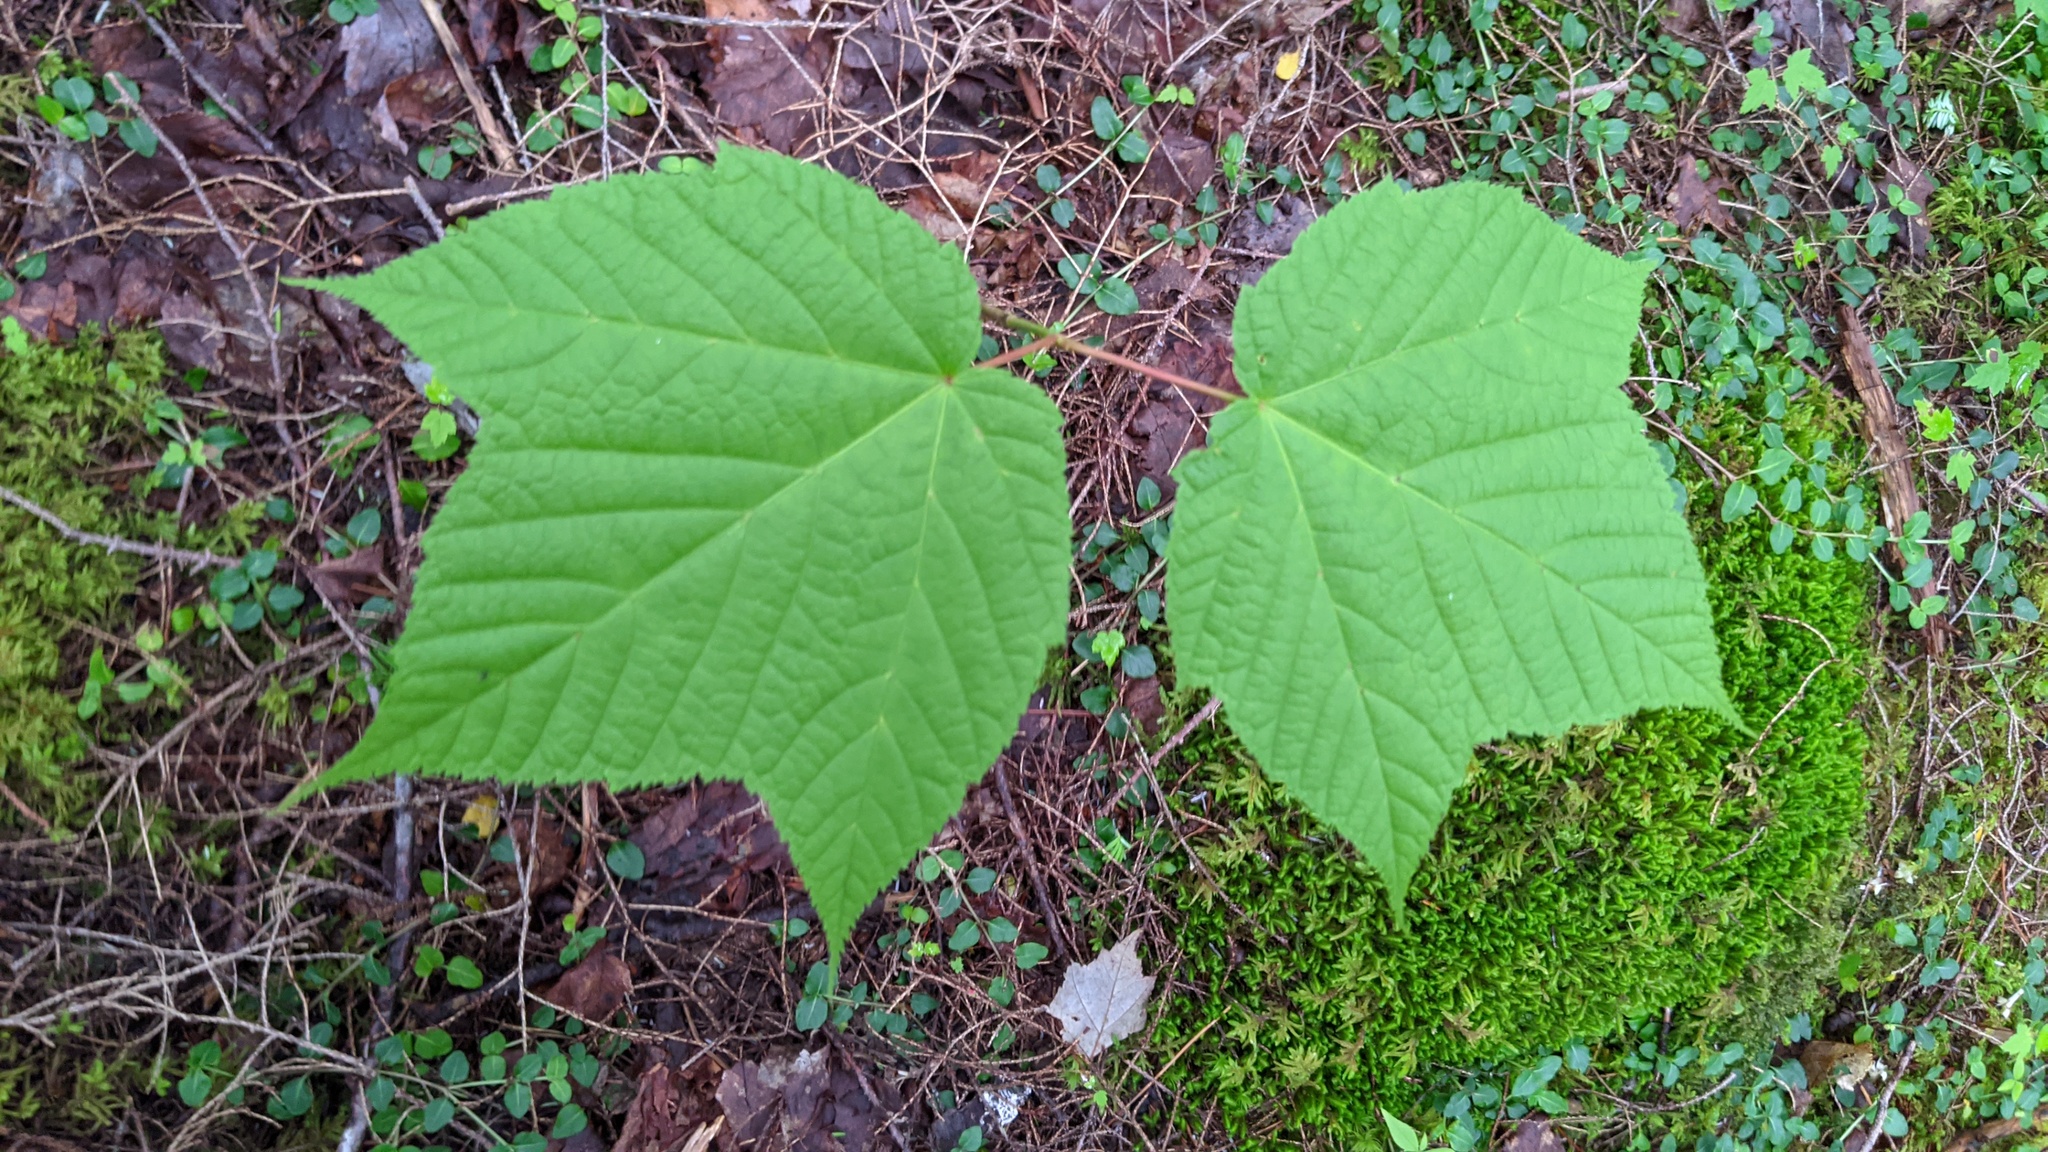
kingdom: Plantae
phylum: Tracheophyta
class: Magnoliopsida
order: Sapindales
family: Sapindaceae
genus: Acer
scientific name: Acer pensylvanicum
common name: Moosewood
